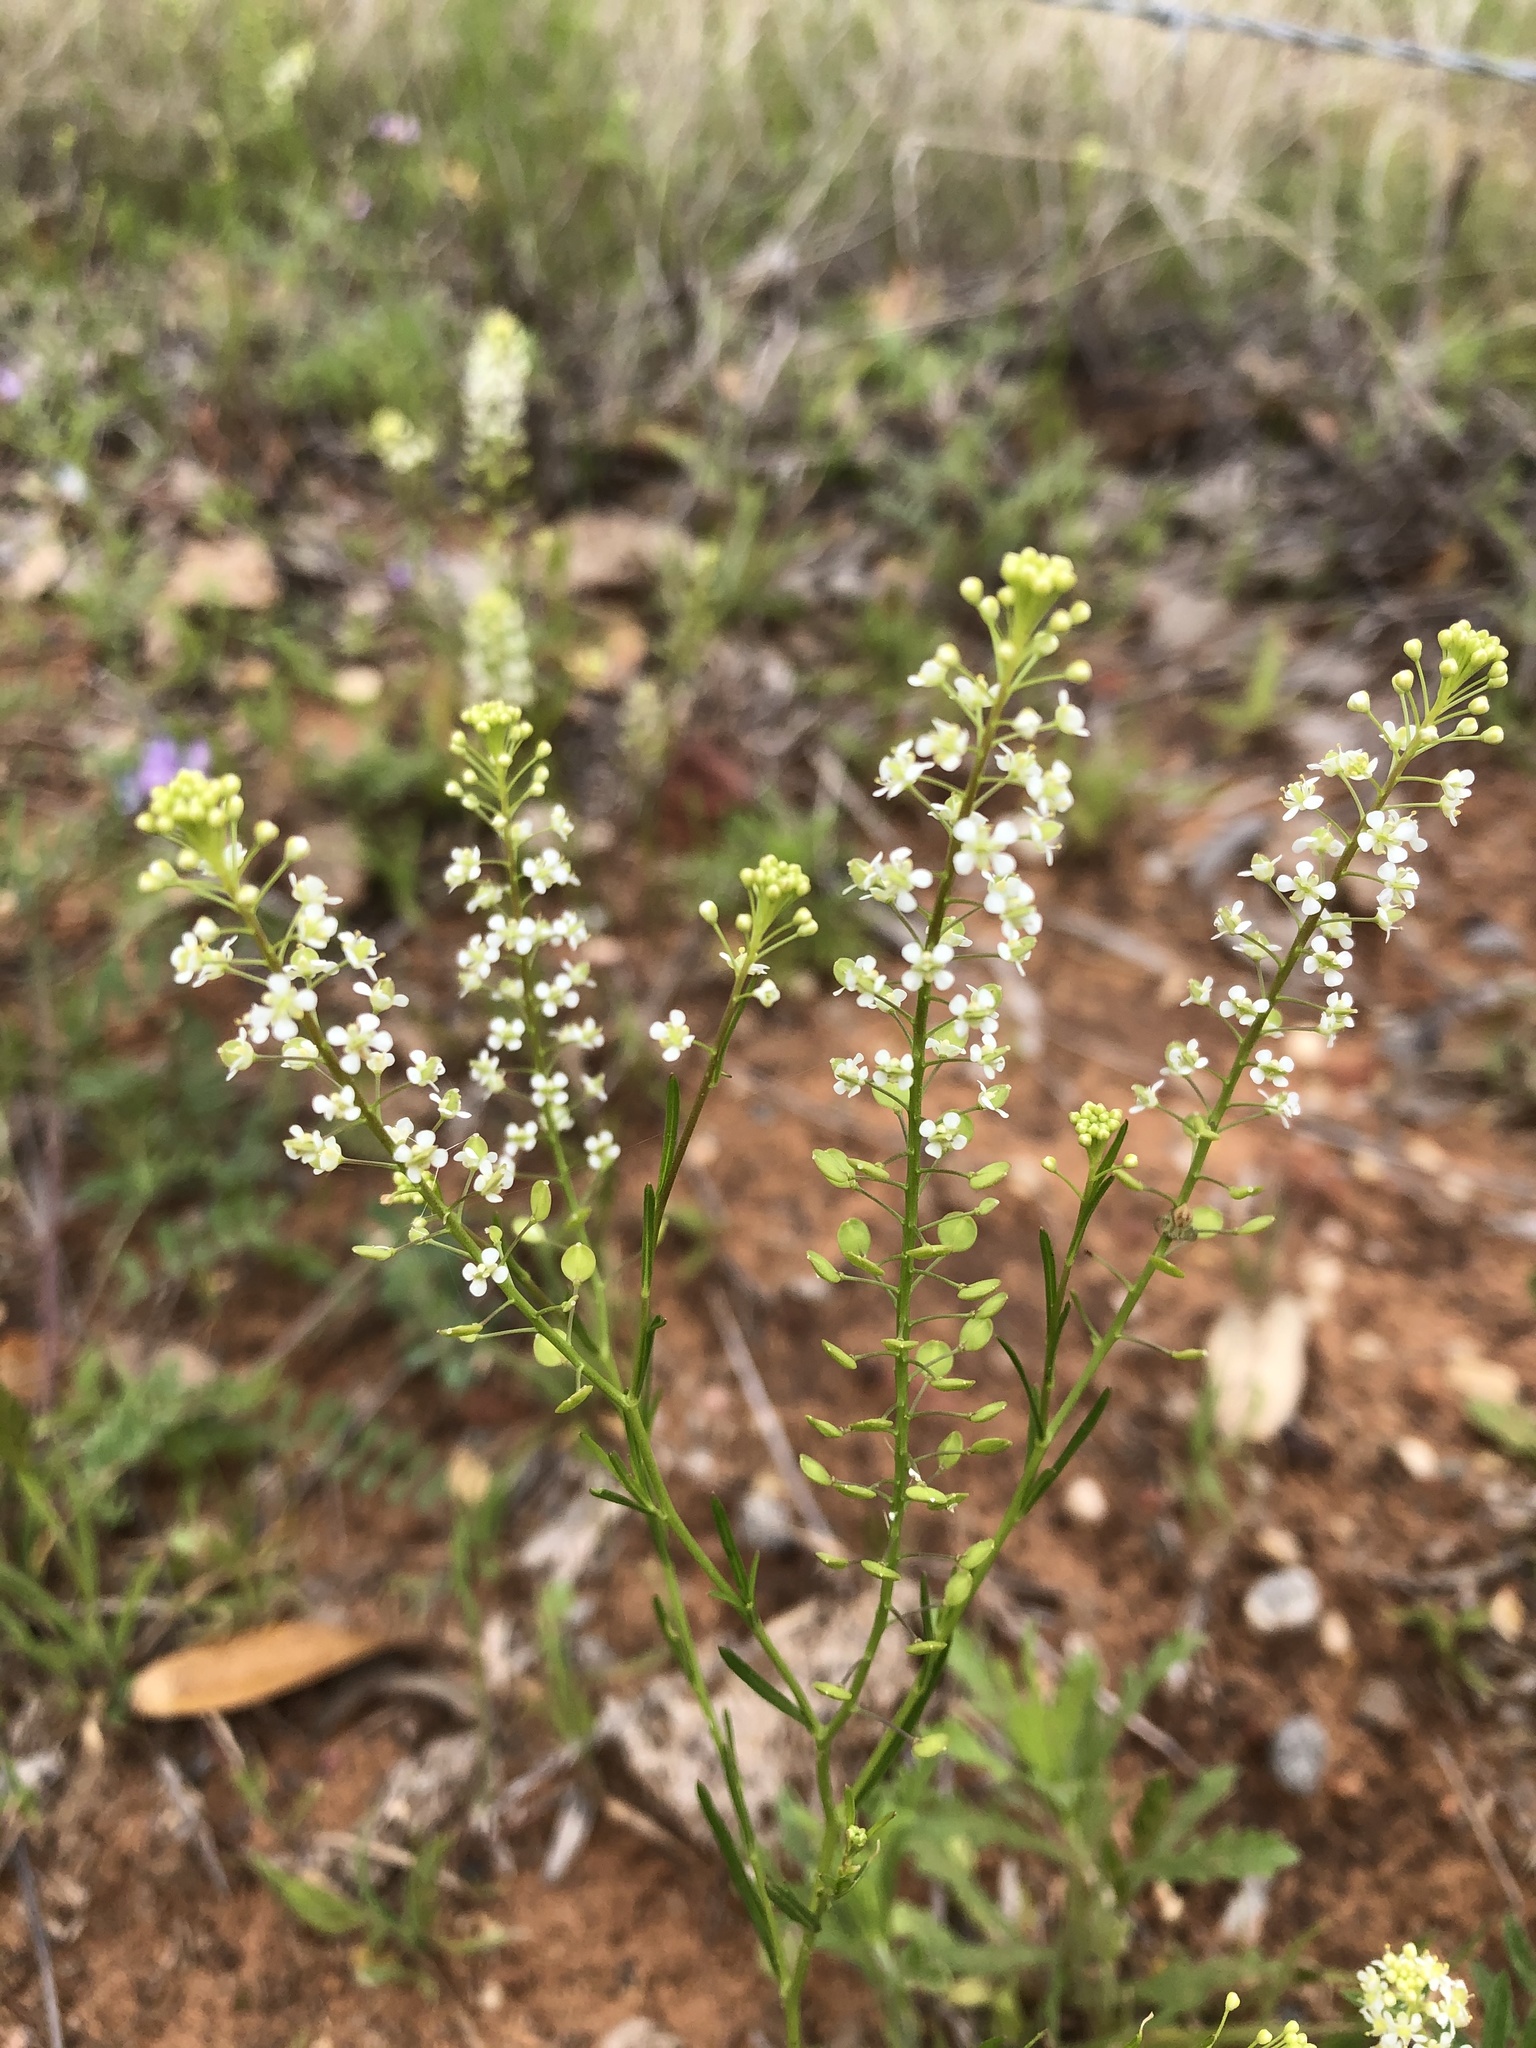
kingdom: Plantae
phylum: Tracheophyta
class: Magnoliopsida
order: Brassicales
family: Brassicaceae
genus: Lepidium
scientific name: Lepidium virginicum
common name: Least pepperwort
